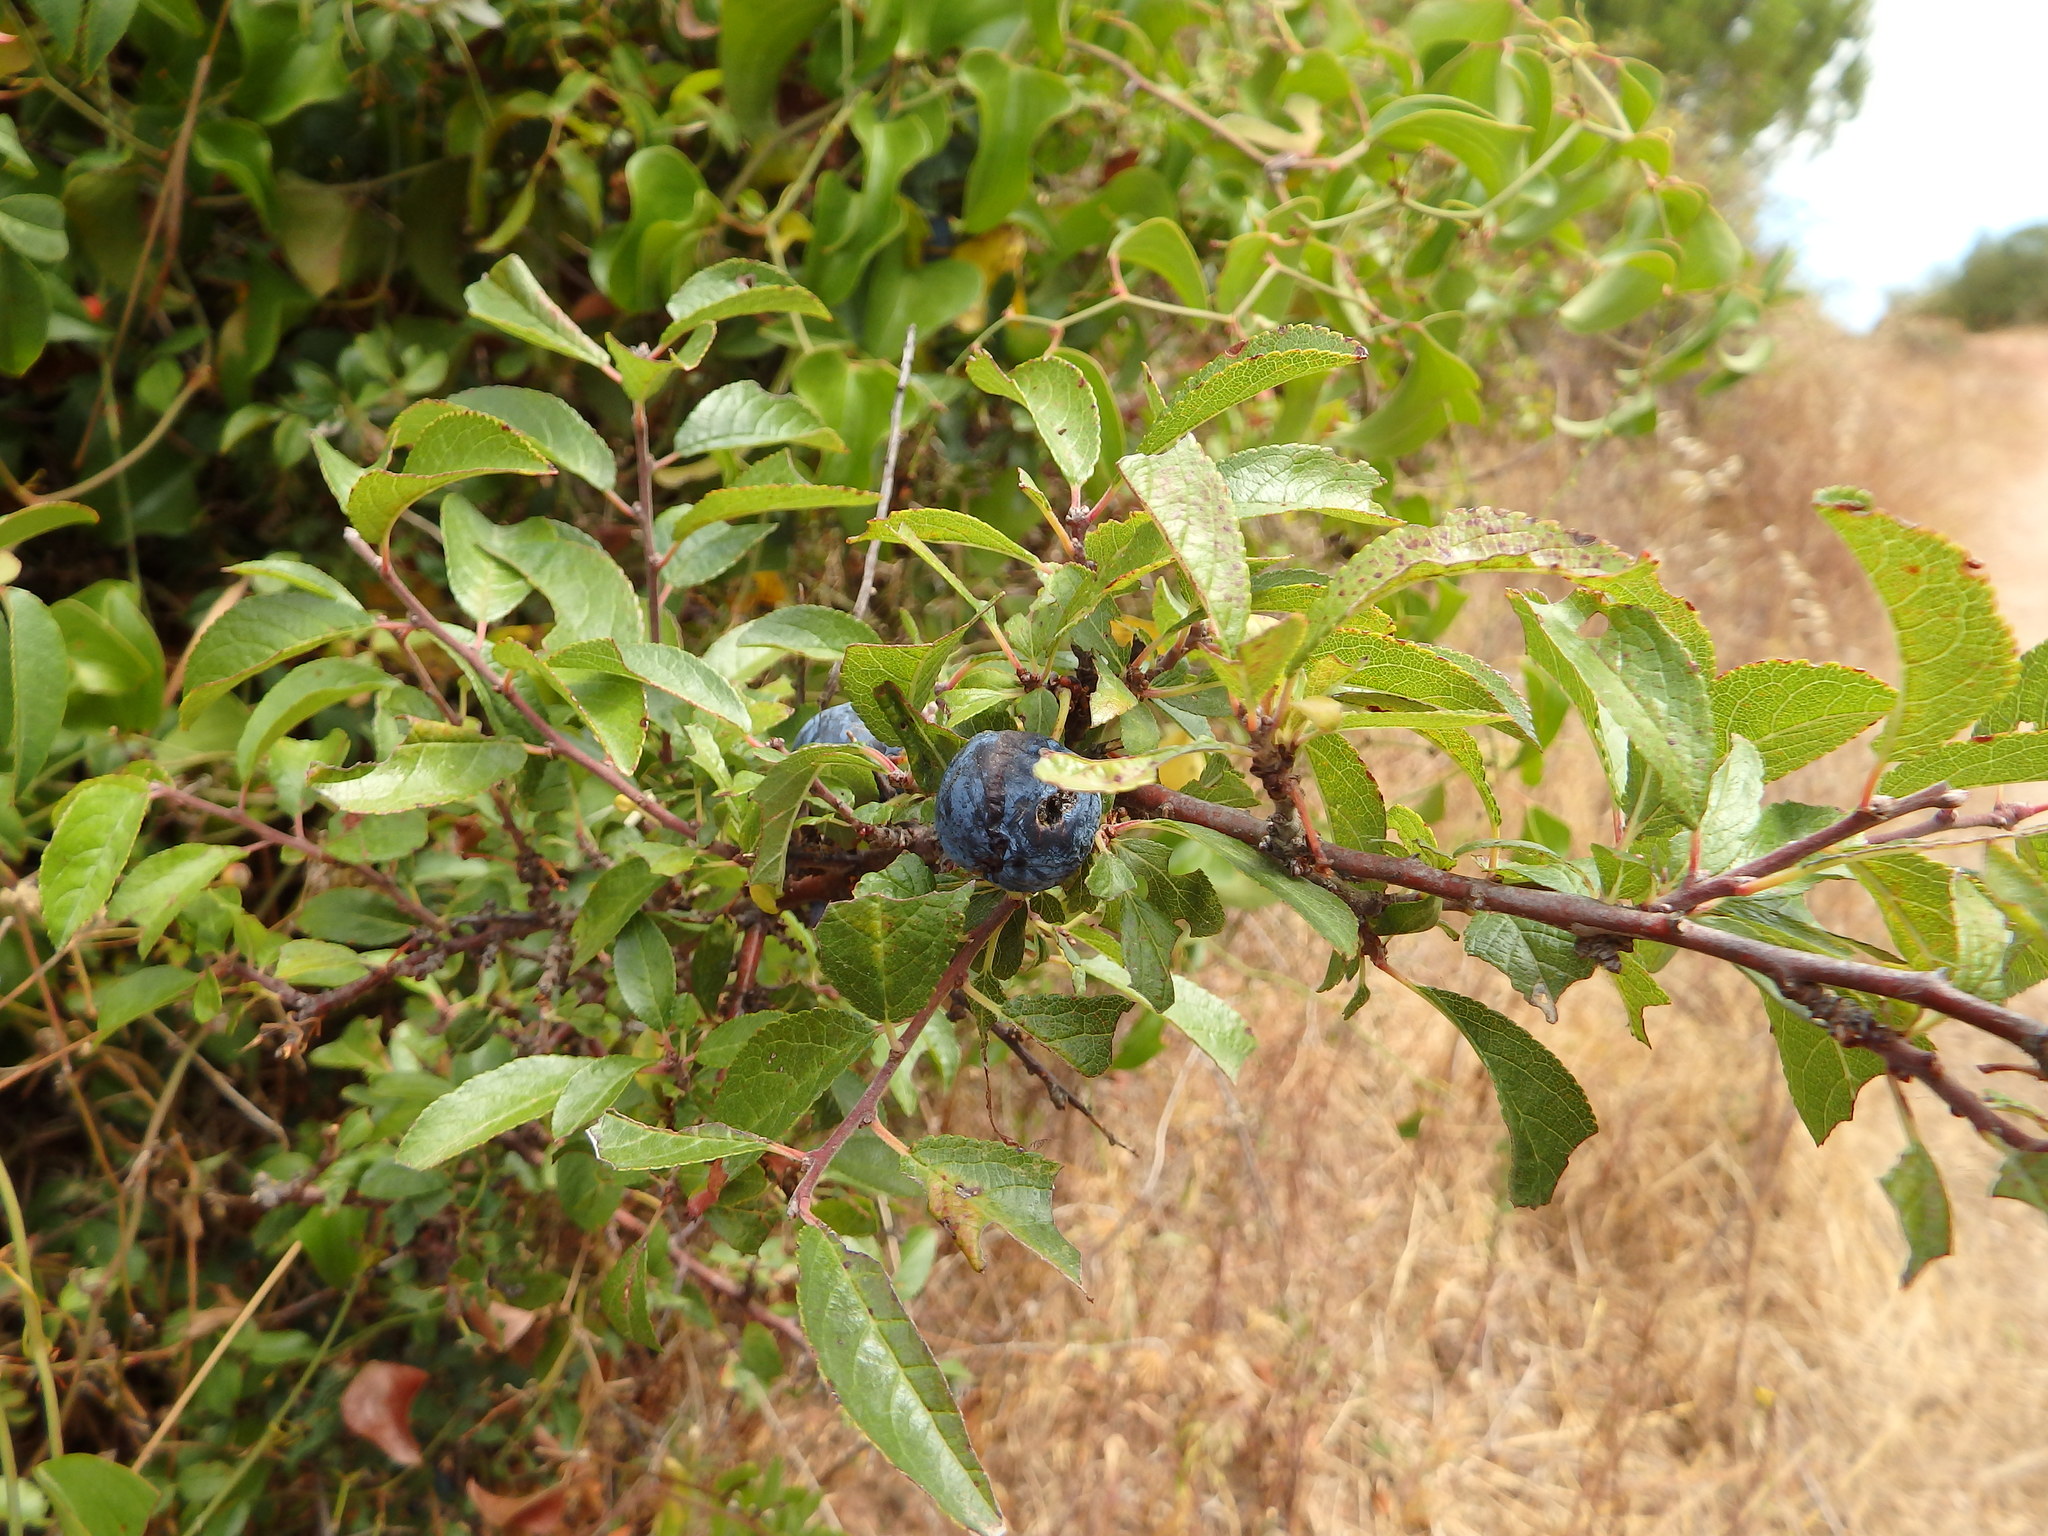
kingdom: Plantae
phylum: Tracheophyta
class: Magnoliopsida
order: Rosales
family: Rosaceae
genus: Prunus
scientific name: Prunus spinosa
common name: Blackthorn
